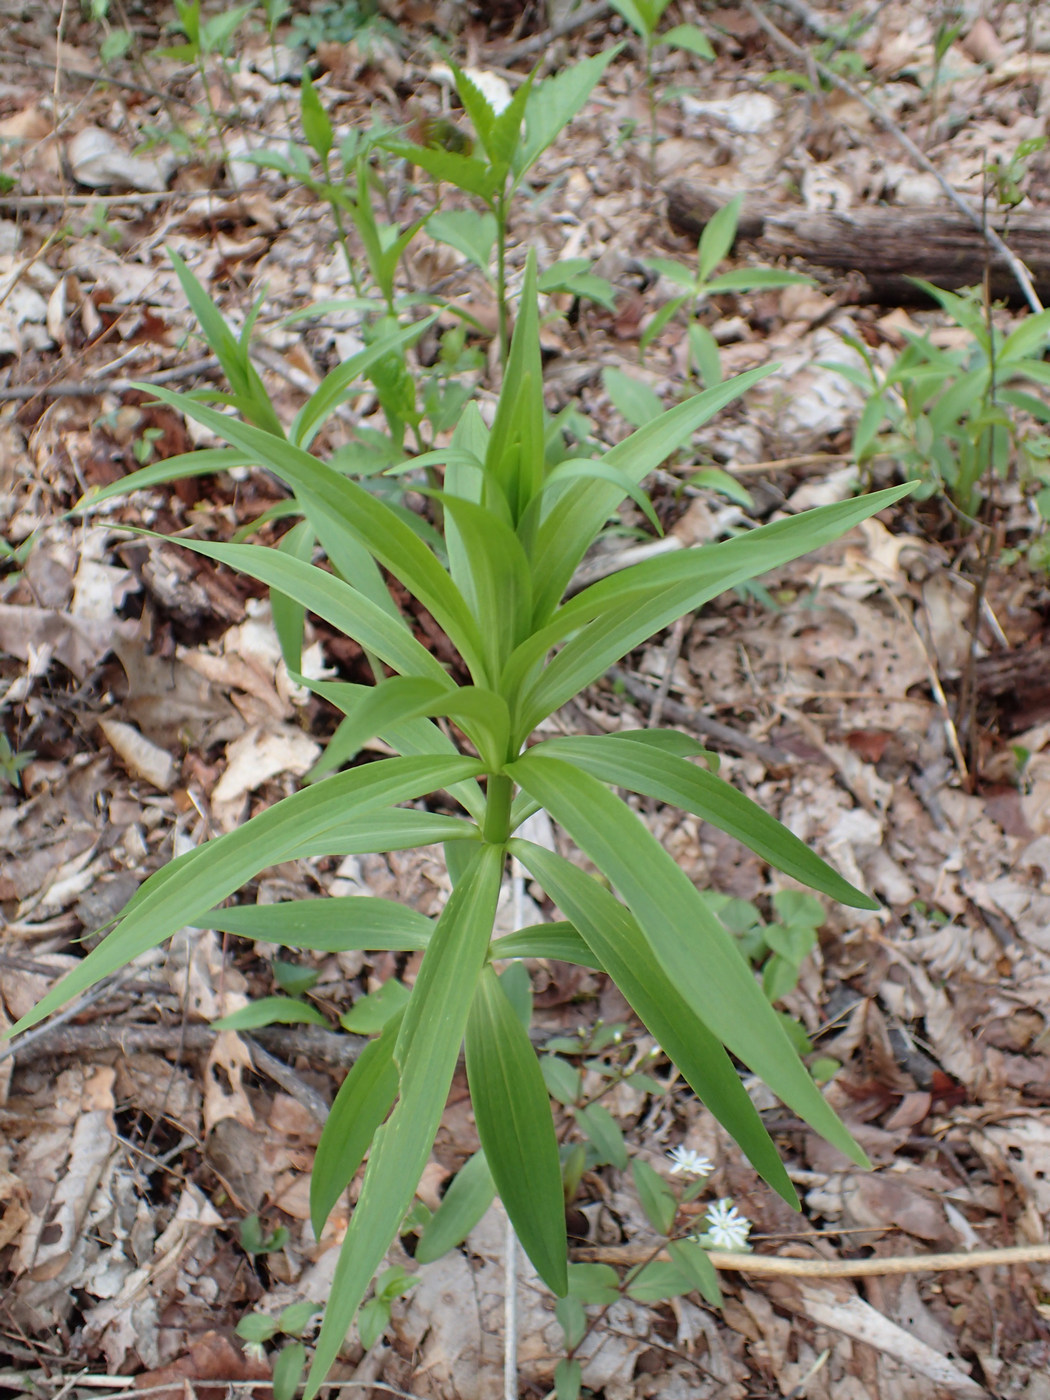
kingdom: Plantae
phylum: Tracheophyta
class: Liliopsida
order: Liliales
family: Liliaceae
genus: Lilium
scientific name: Lilium superbum
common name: American turk's-cap lily
